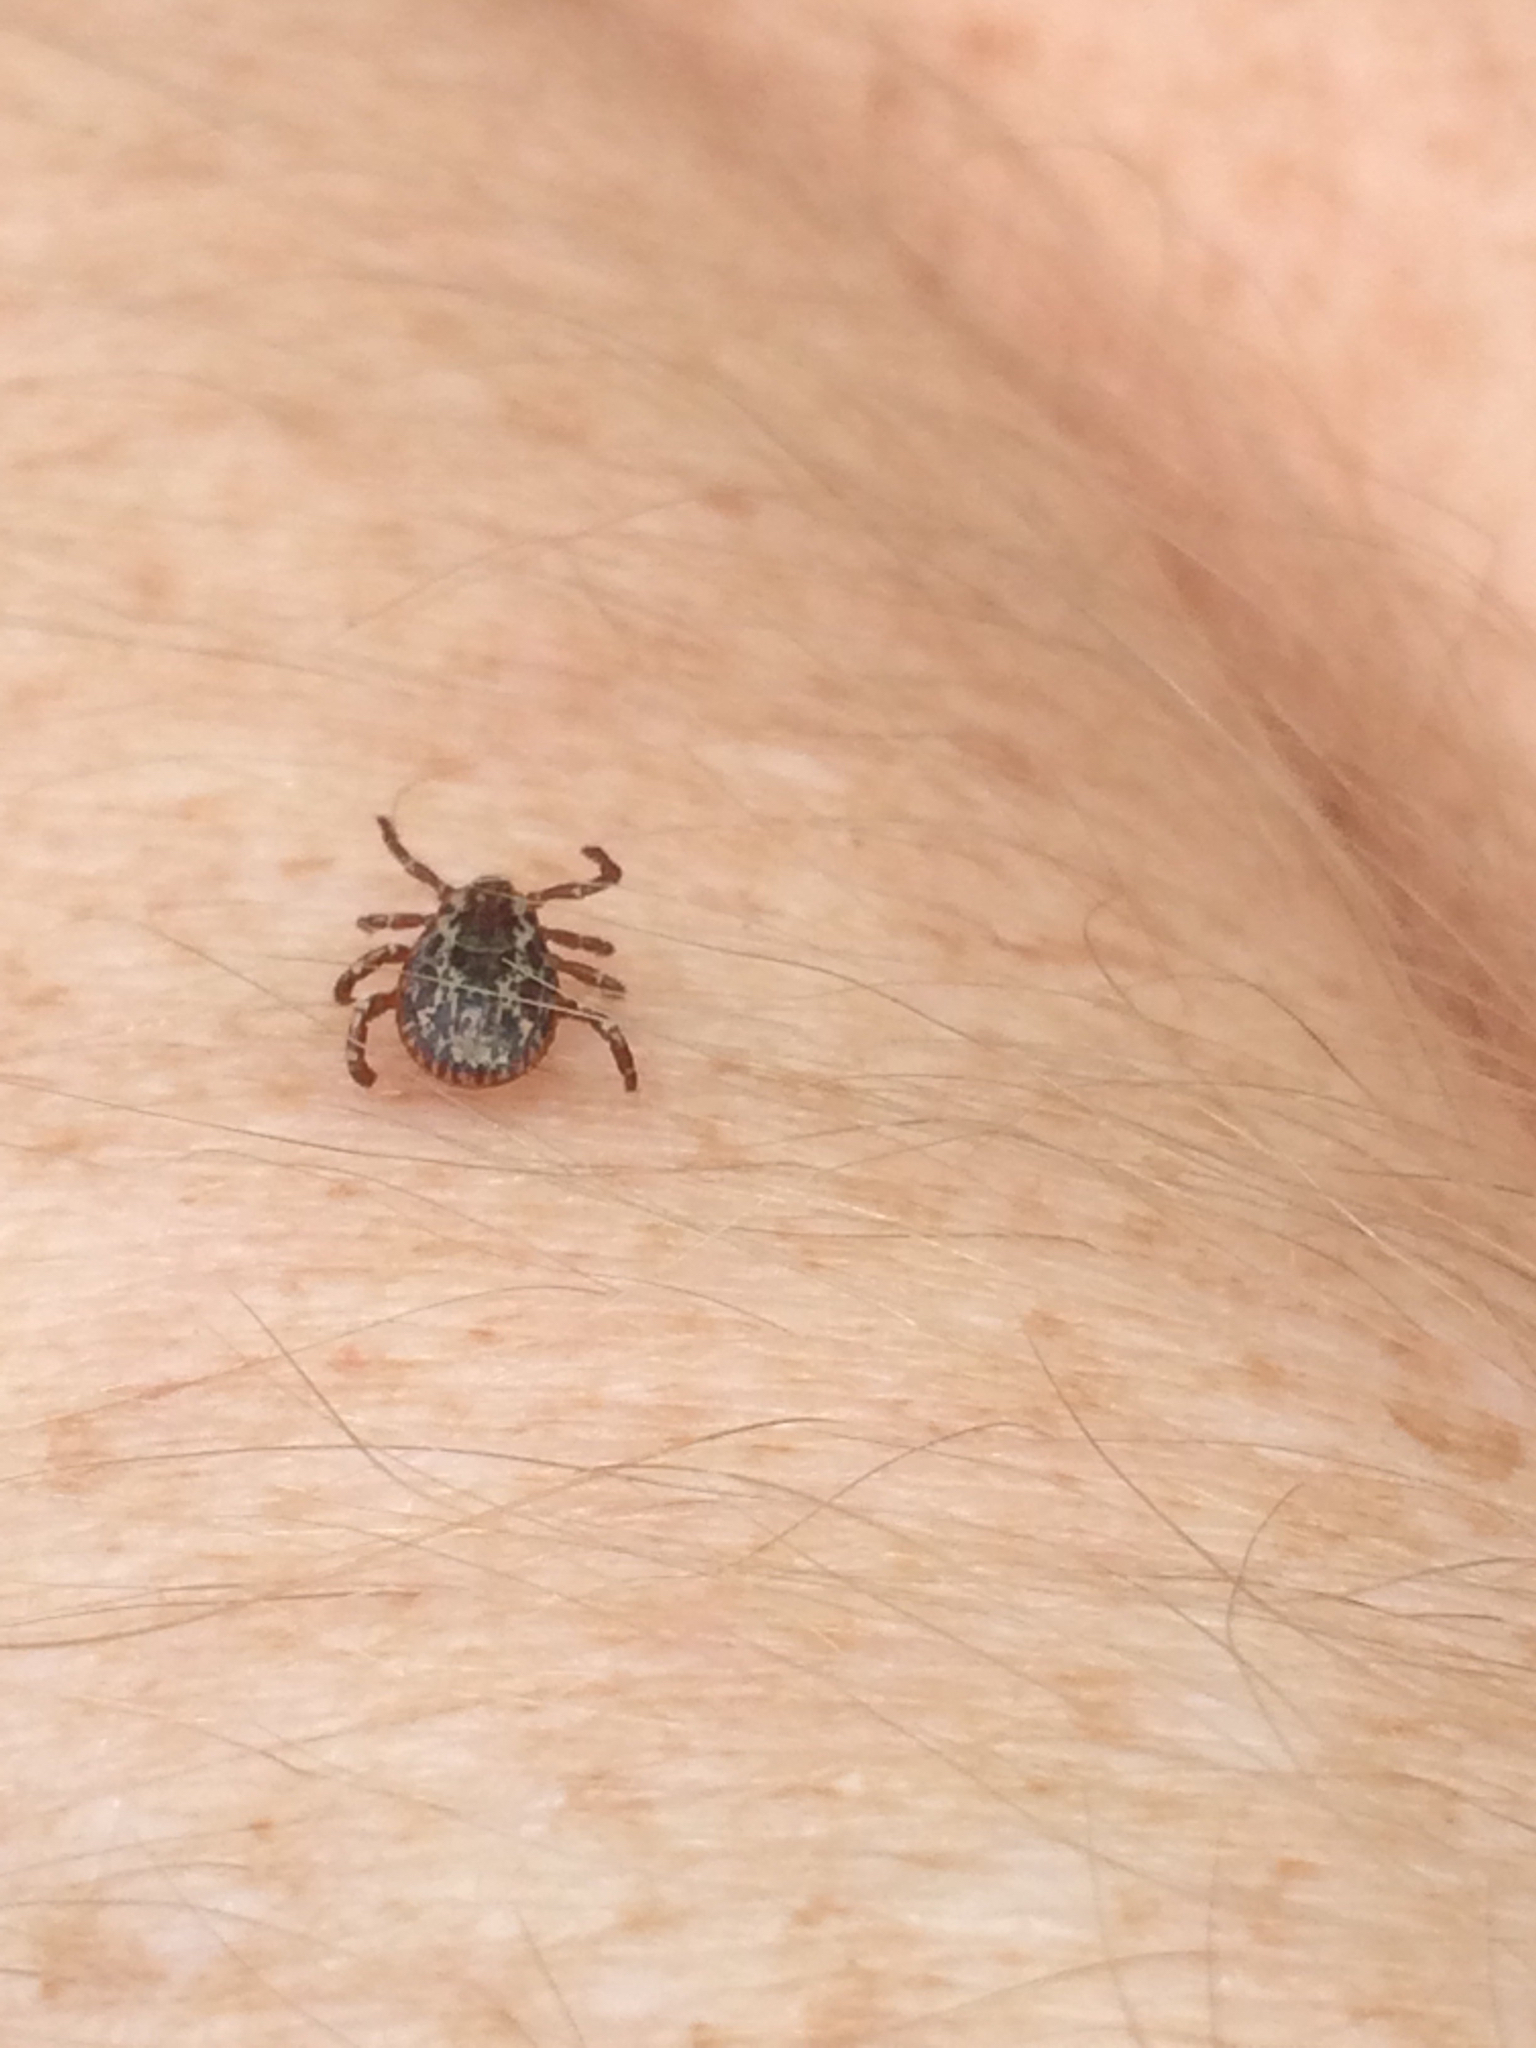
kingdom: Animalia
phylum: Arthropoda
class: Arachnida
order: Ixodida
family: Ixodidae
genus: Dermacentor
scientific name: Dermacentor variabilis
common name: American dog tick
